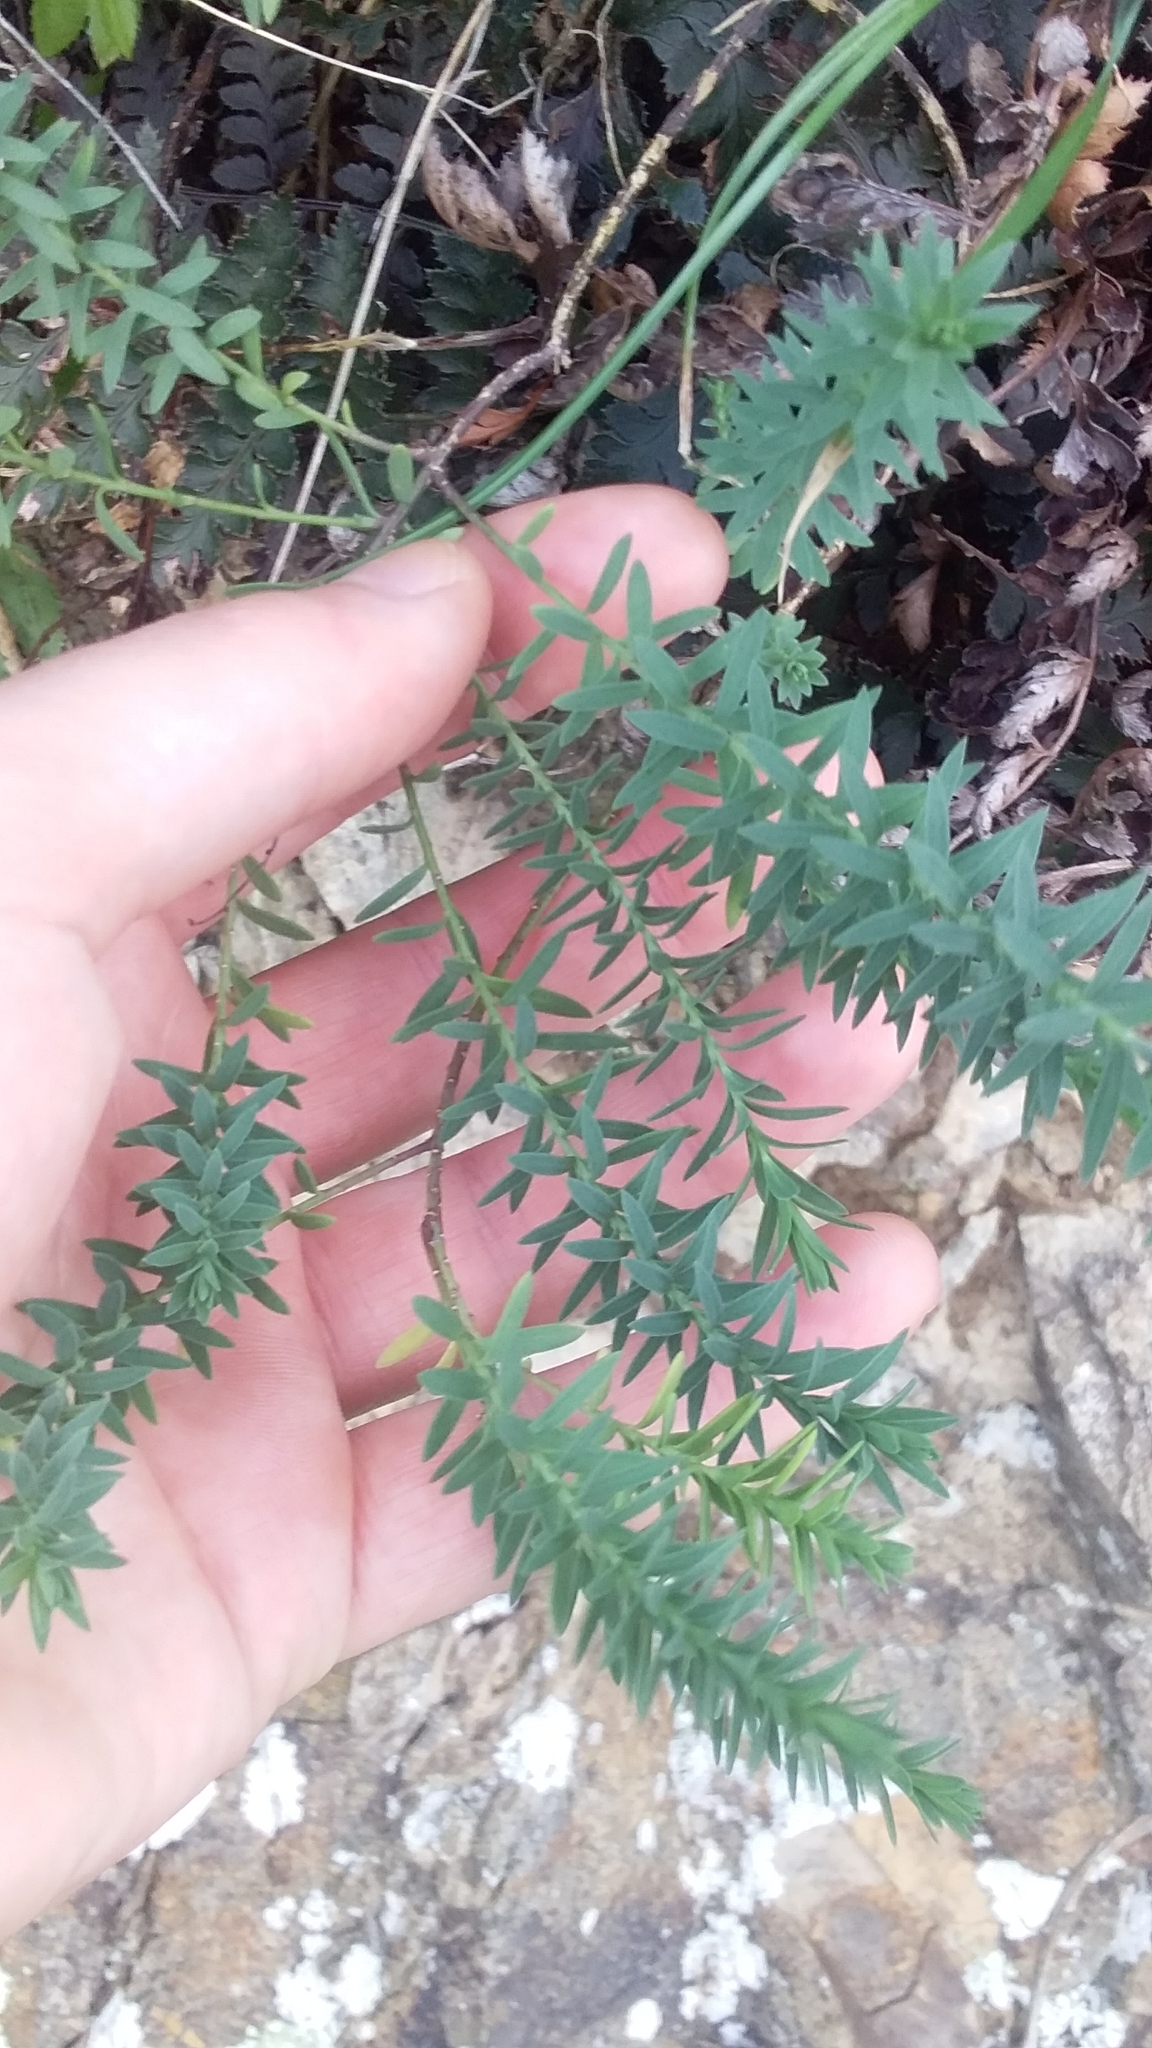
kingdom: Plantae
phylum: Tracheophyta
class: Magnoliopsida
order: Malpighiales
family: Linaceae
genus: Linum
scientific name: Linum monogynum
